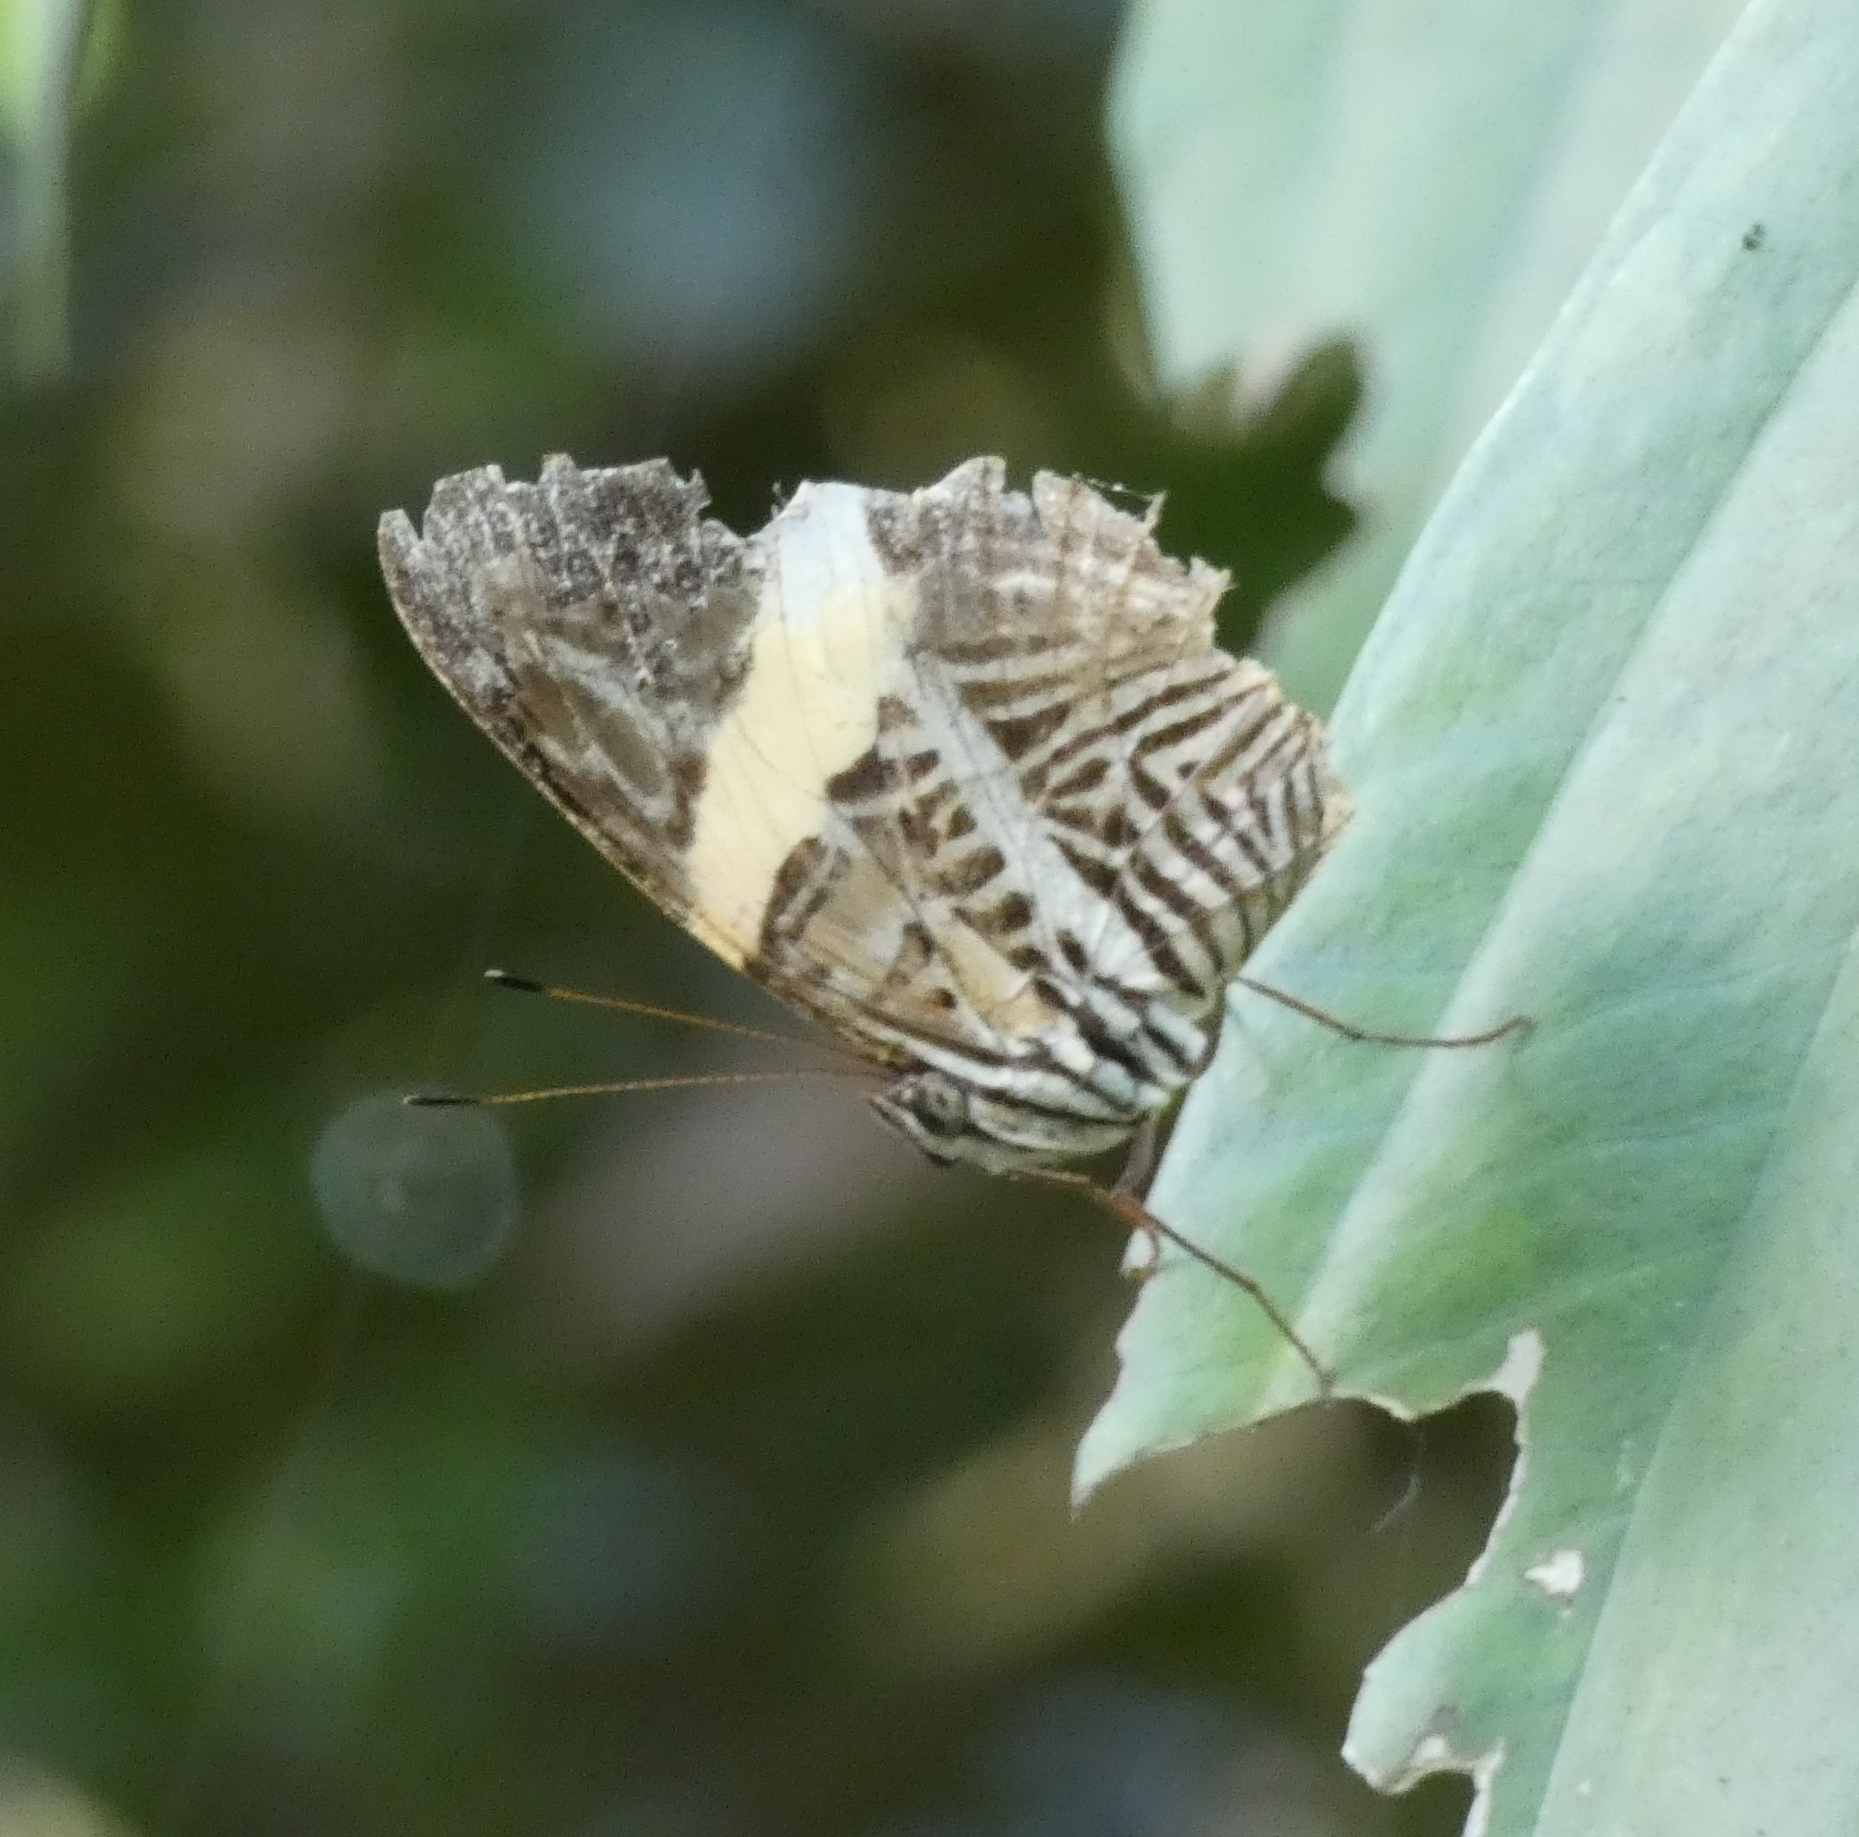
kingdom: Animalia
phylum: Arthropoda
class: Insecta
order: Lepidoptera
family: Nymphalidae
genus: Colobura
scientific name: Colobura dirce
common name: Dirce beauty
